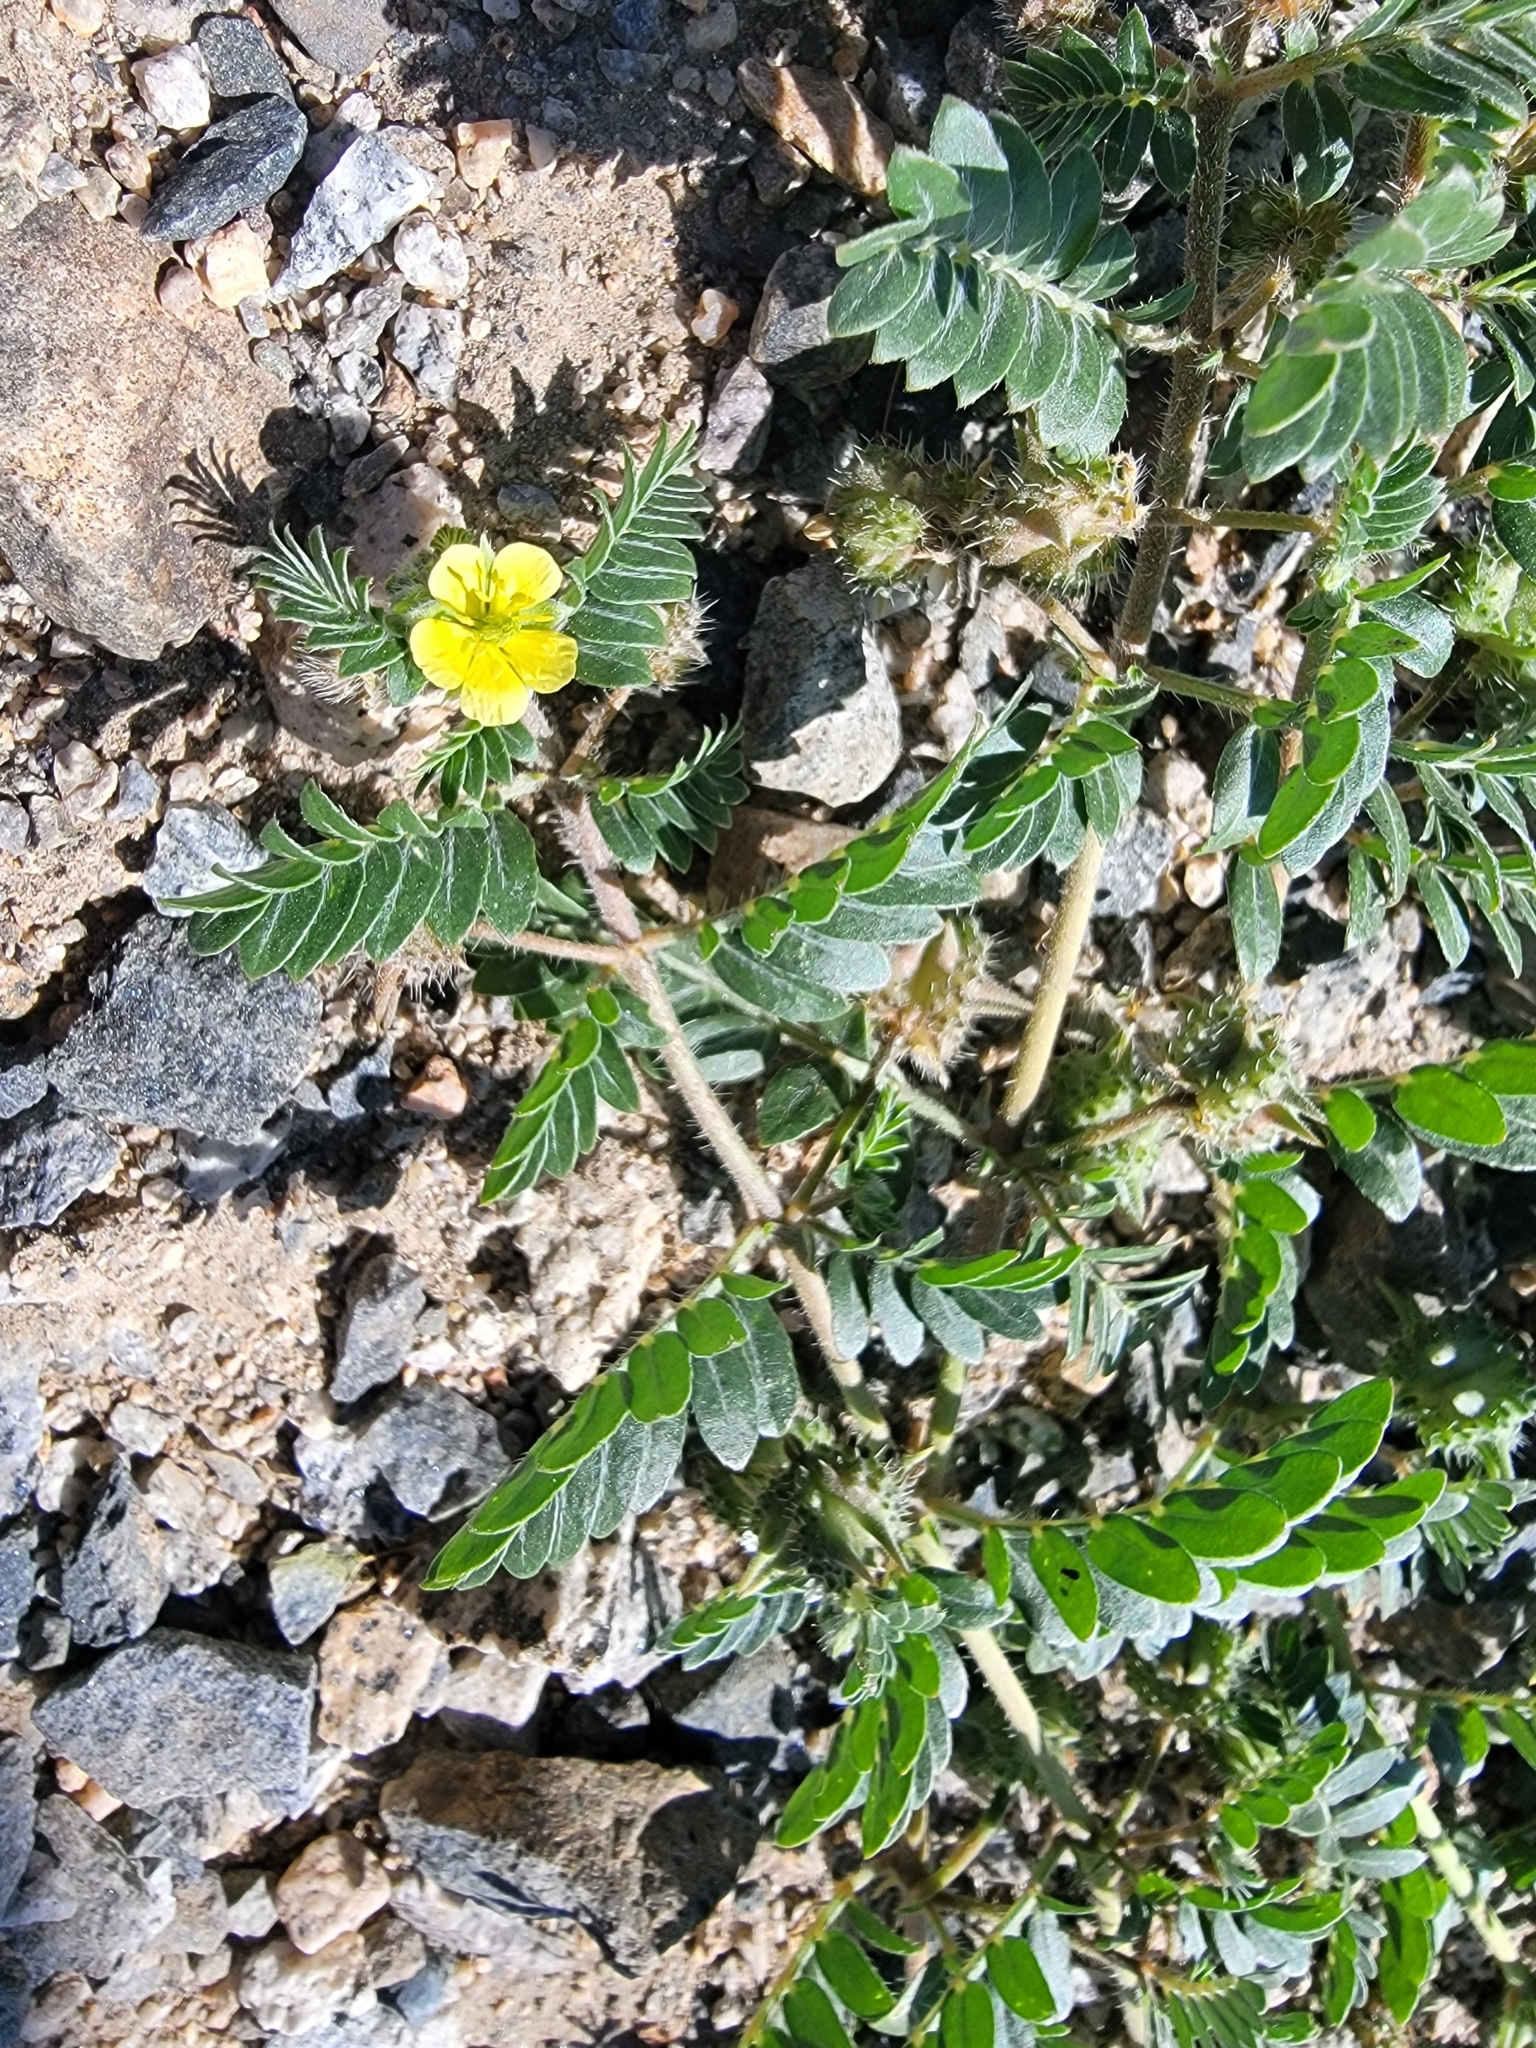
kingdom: Plantae
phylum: Tracheophyta
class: Magnoliopsida
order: Zygophyllales
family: Zygophyllaceae
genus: Tribulus
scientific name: Tribulus terrestris
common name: Puncturevine
